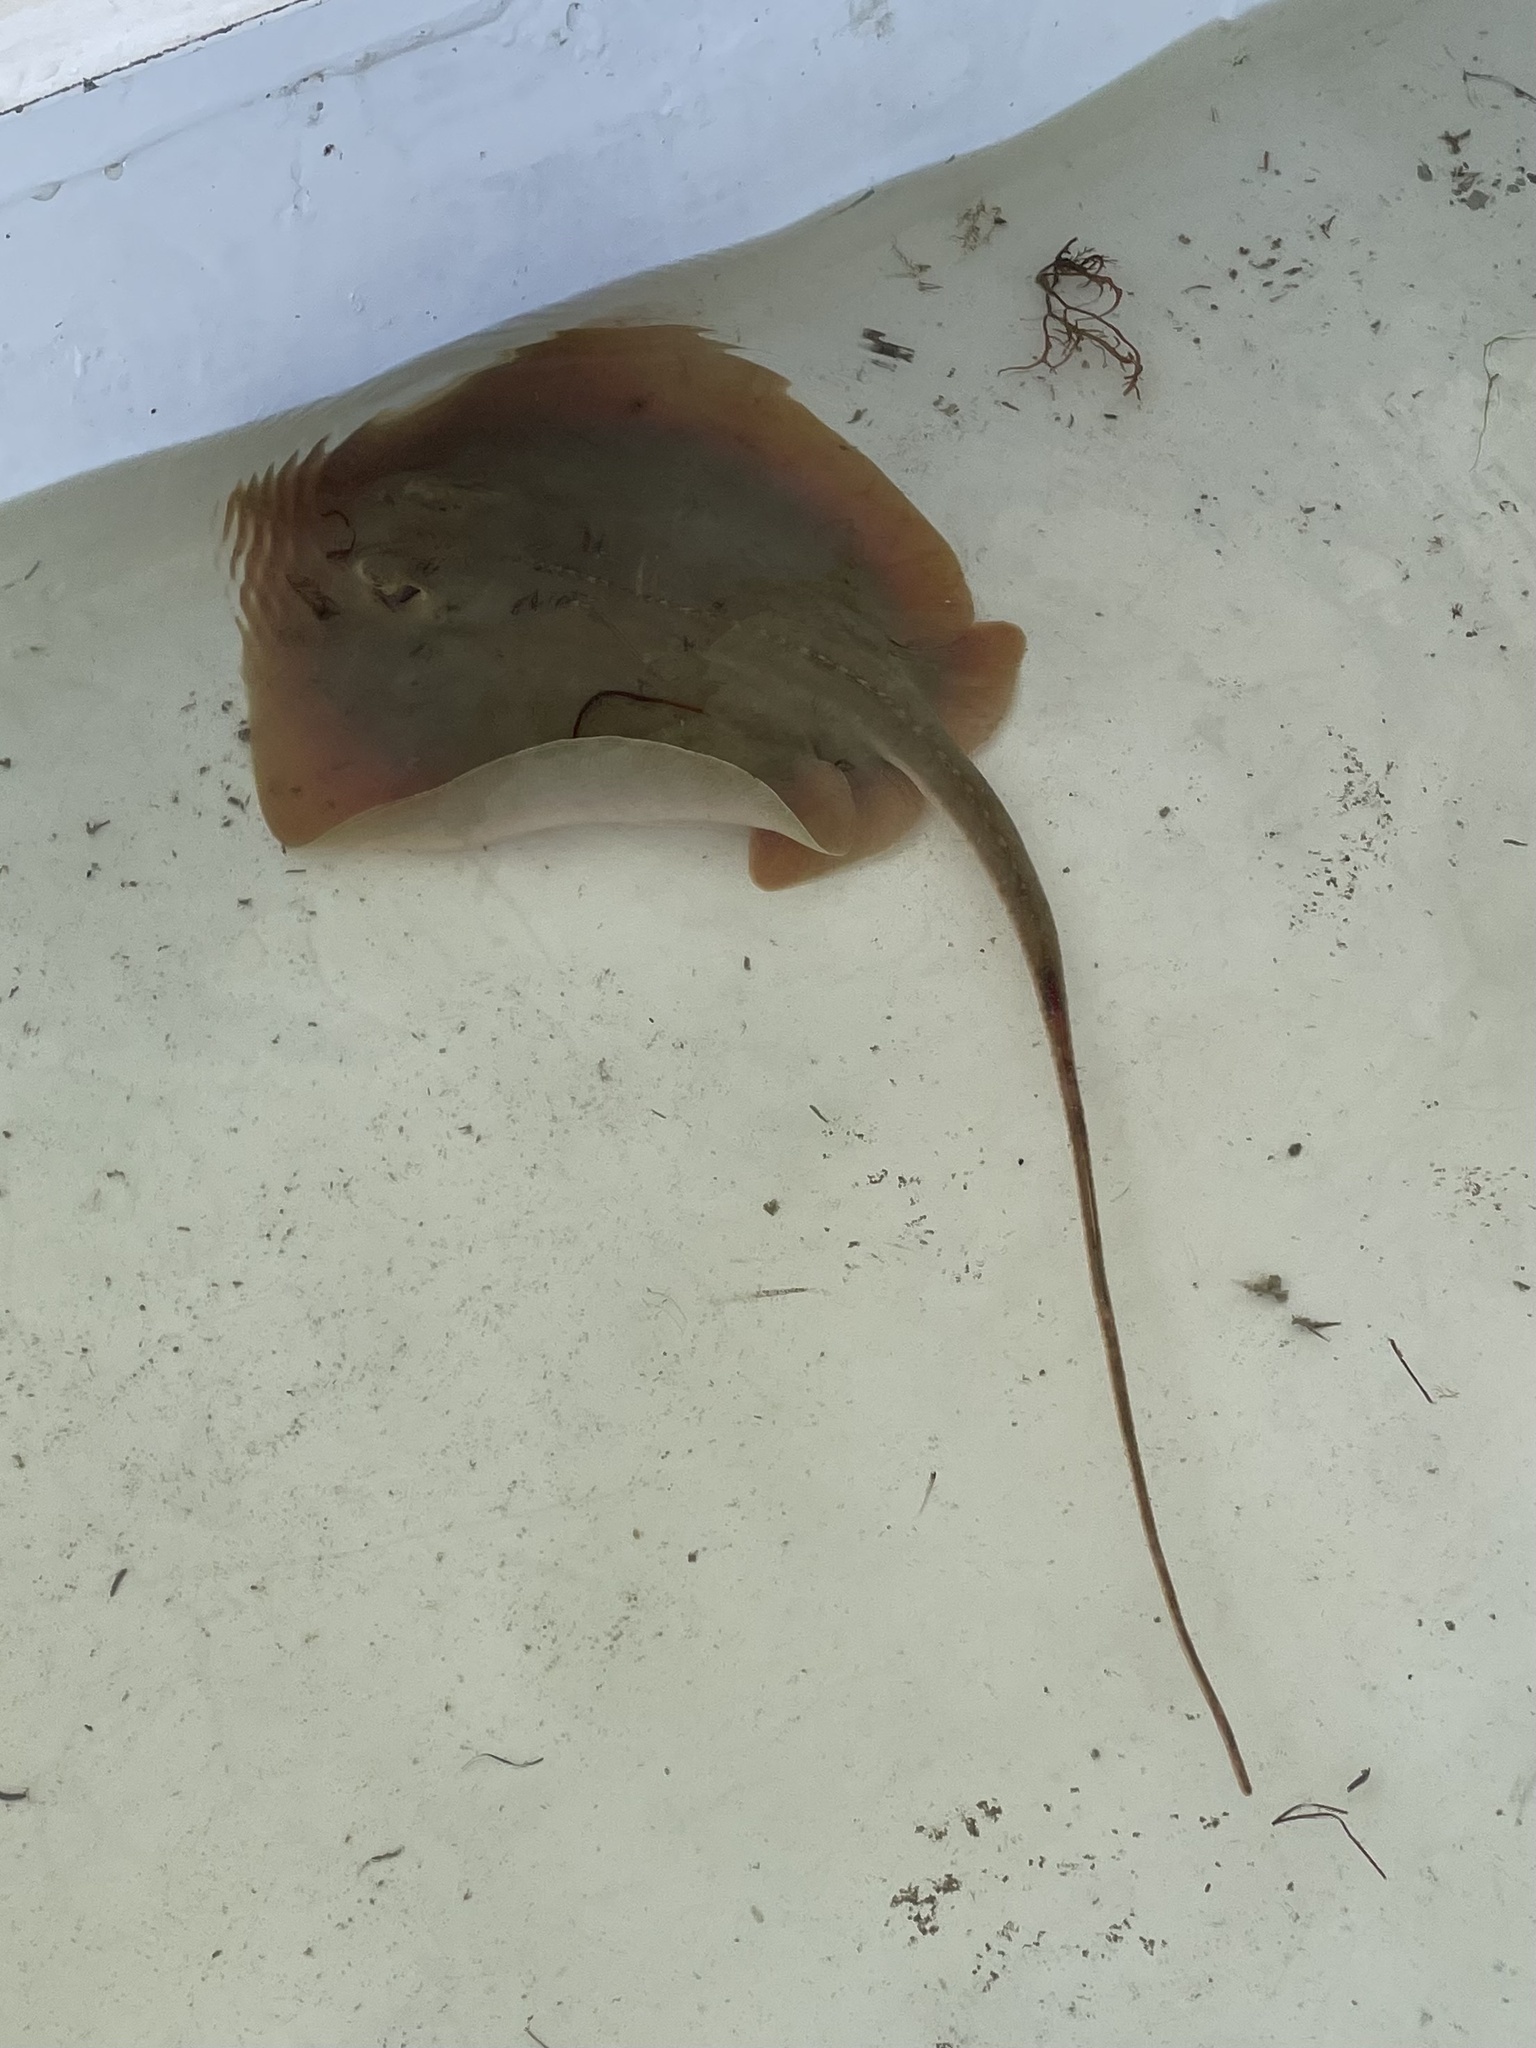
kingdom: Animalia
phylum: Chordata
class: Elasmobranchii
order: Myliobatiformes
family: Dasyatidae
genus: Hypanus
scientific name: Hypanus sabinus
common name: Atlantic stingray
